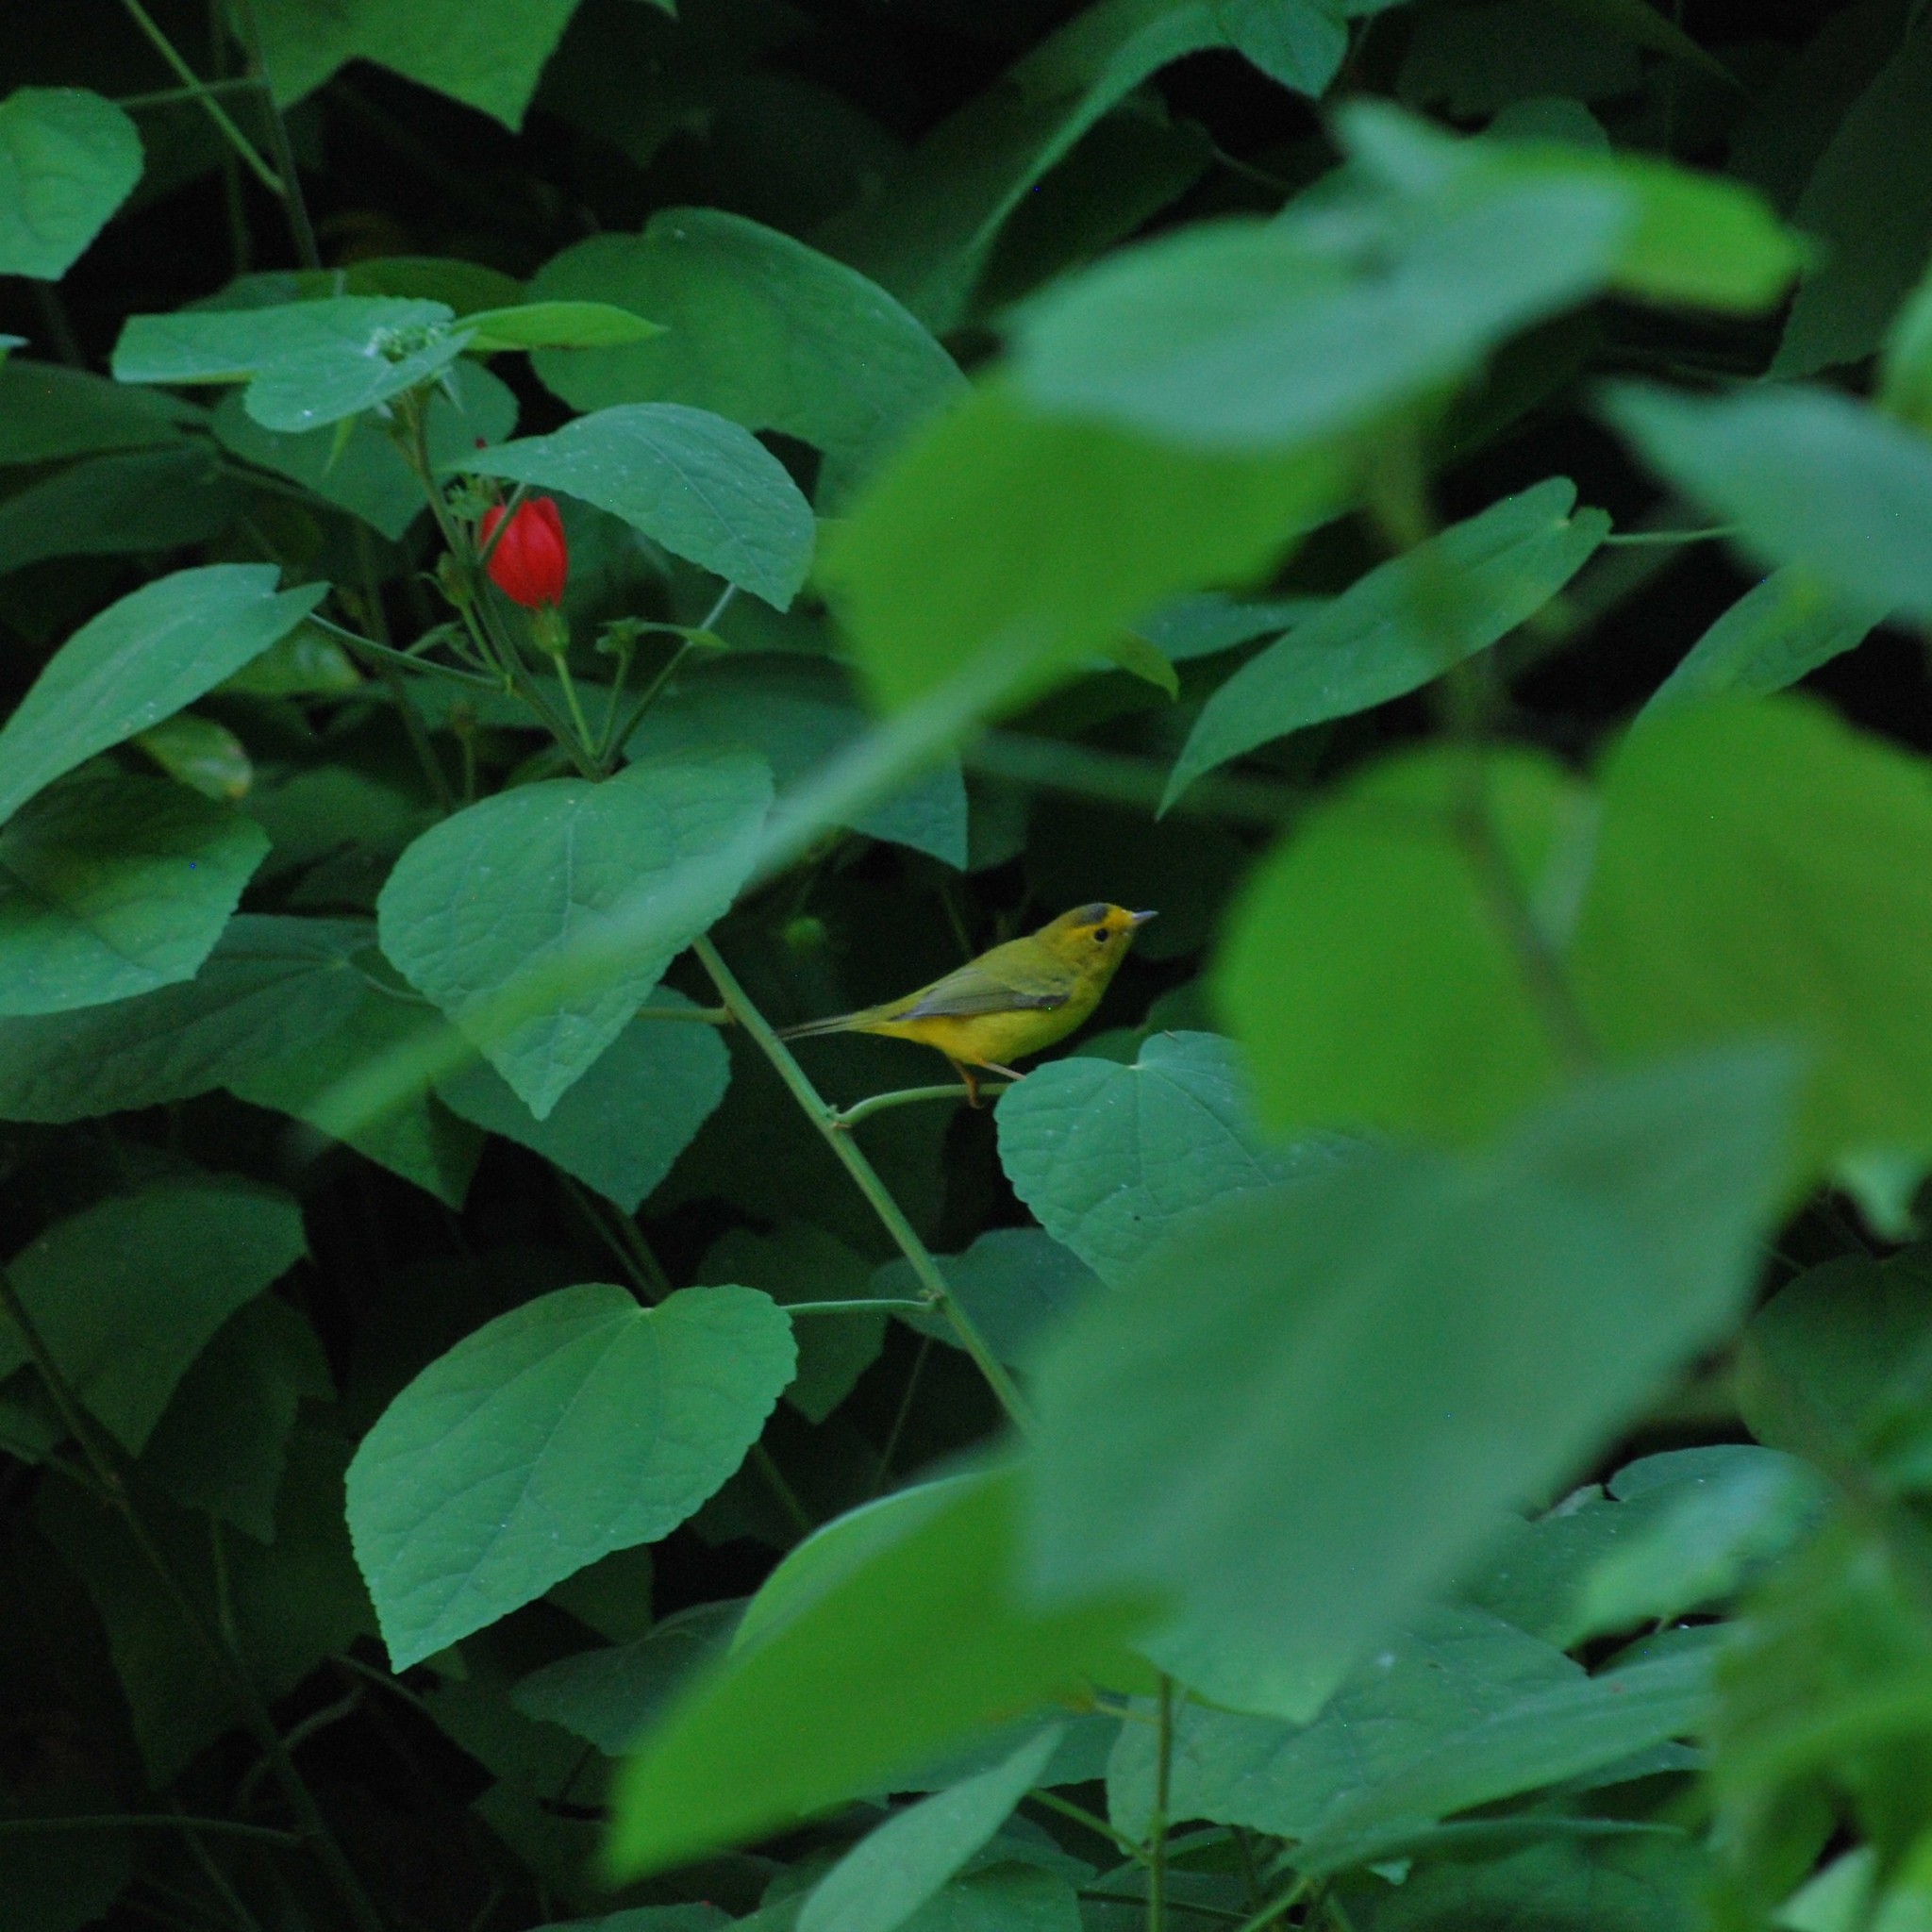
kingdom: Animalia
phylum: Chordata
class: Aves
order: Passeriformes
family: Parulidae
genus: Cardellina
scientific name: Cardellina pusilla
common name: Wilson's warbler
